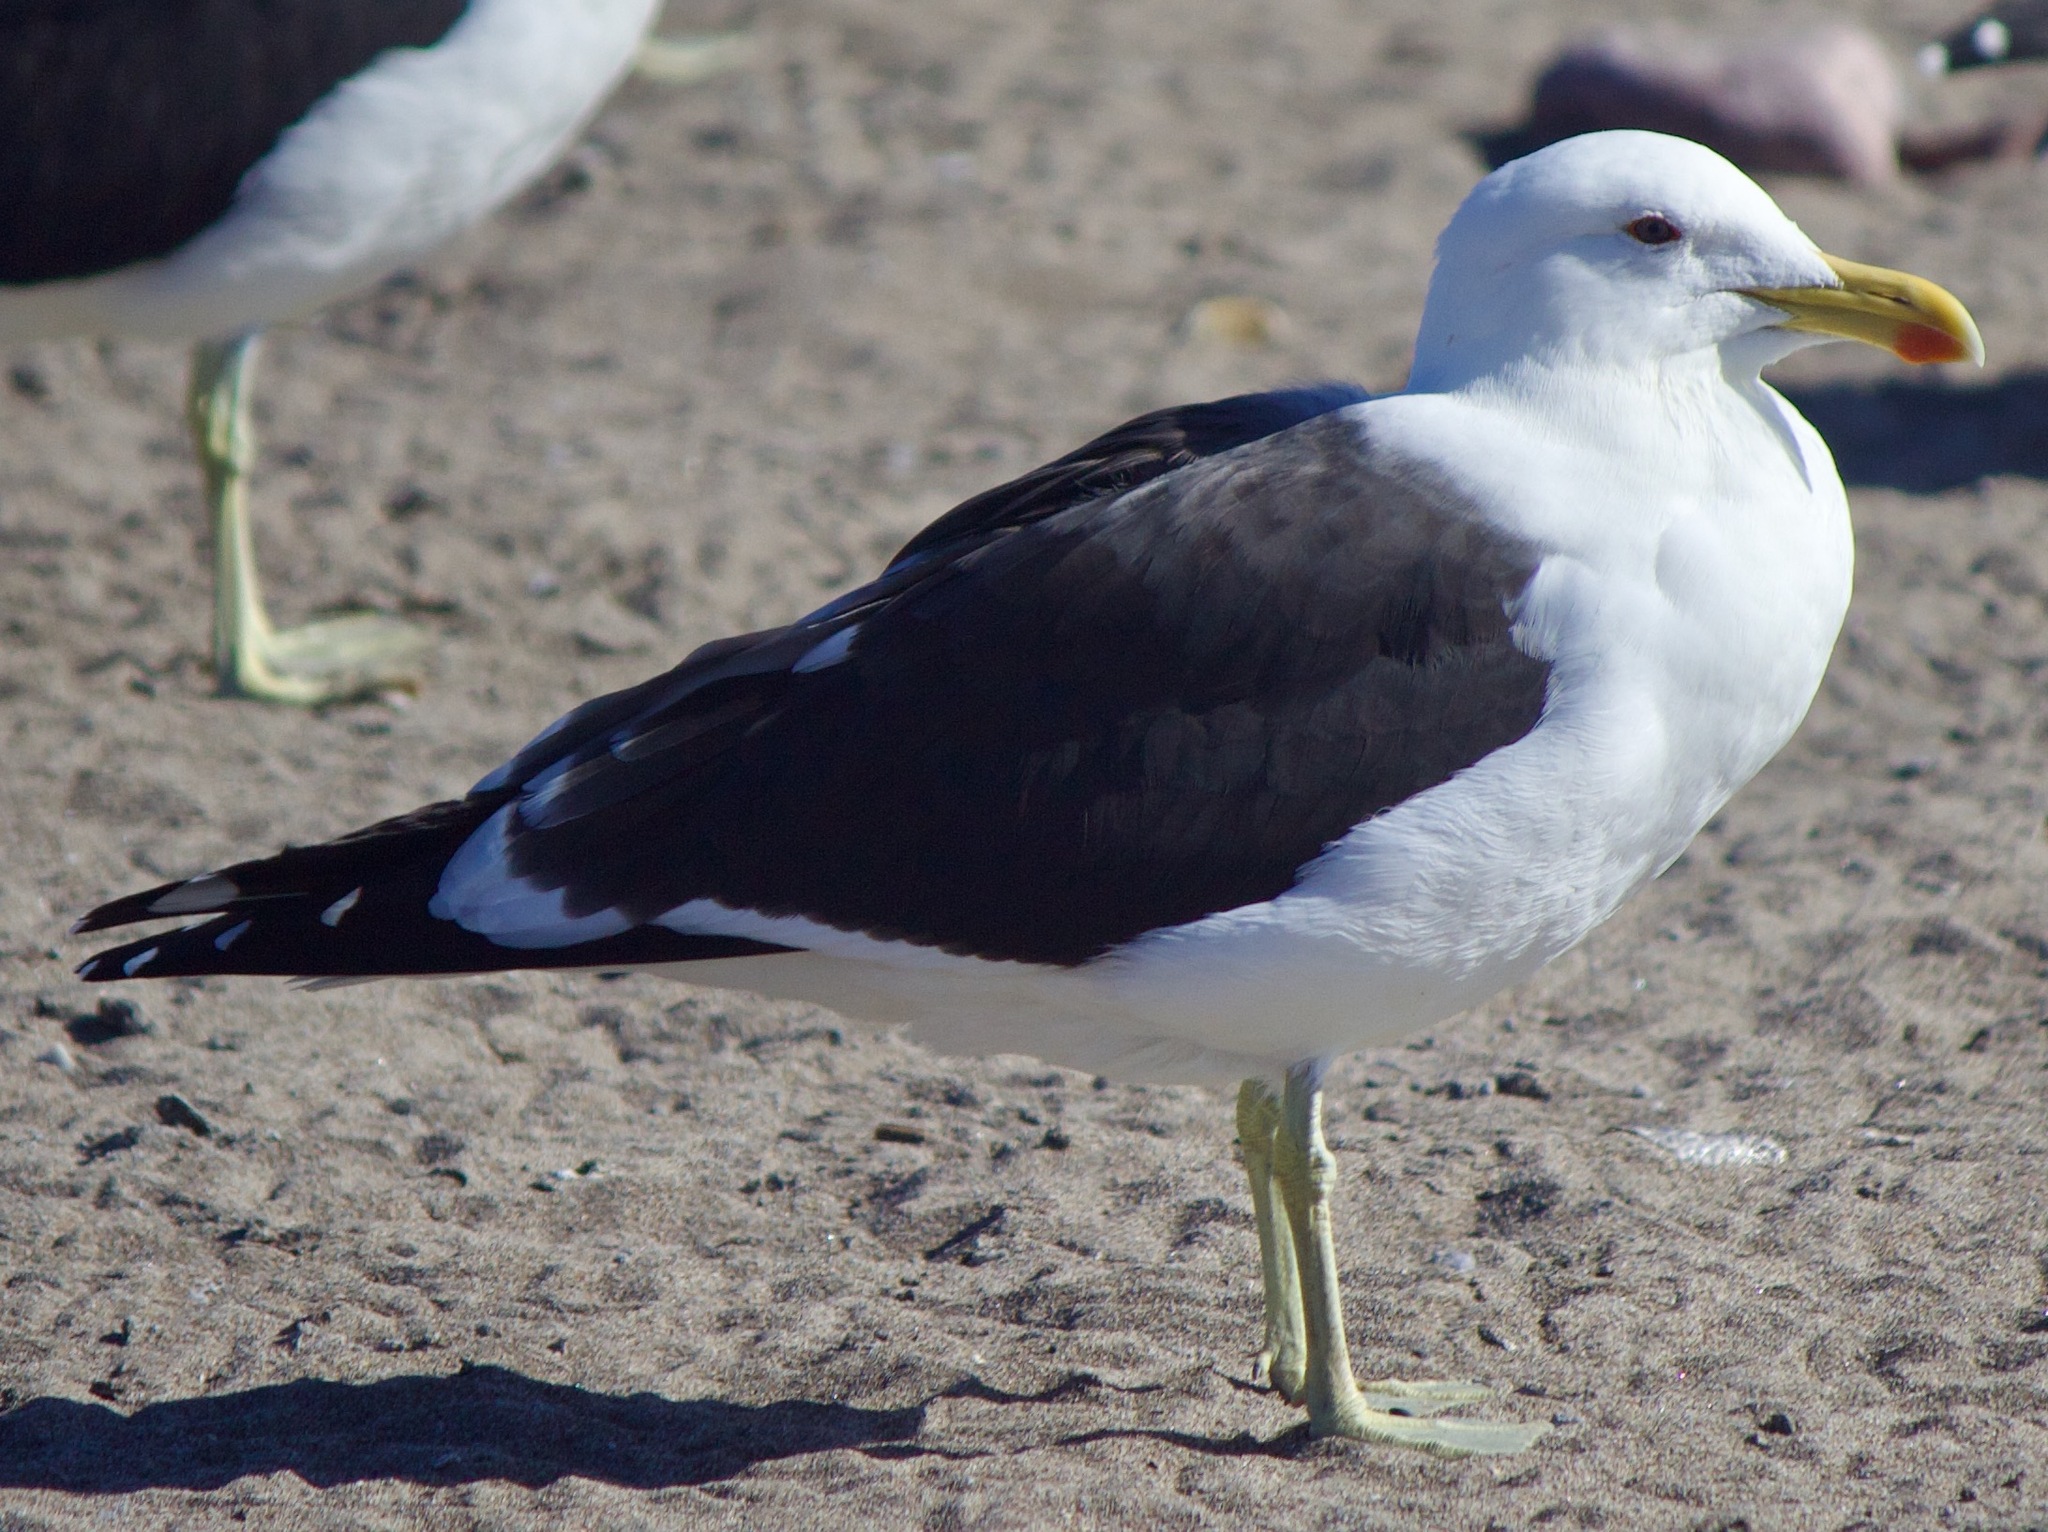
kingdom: Animalia
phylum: Chordata
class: Aves
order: Charadriiformes
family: Laridae
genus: Larus
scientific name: Larus dominicanus
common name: Kelp gull
